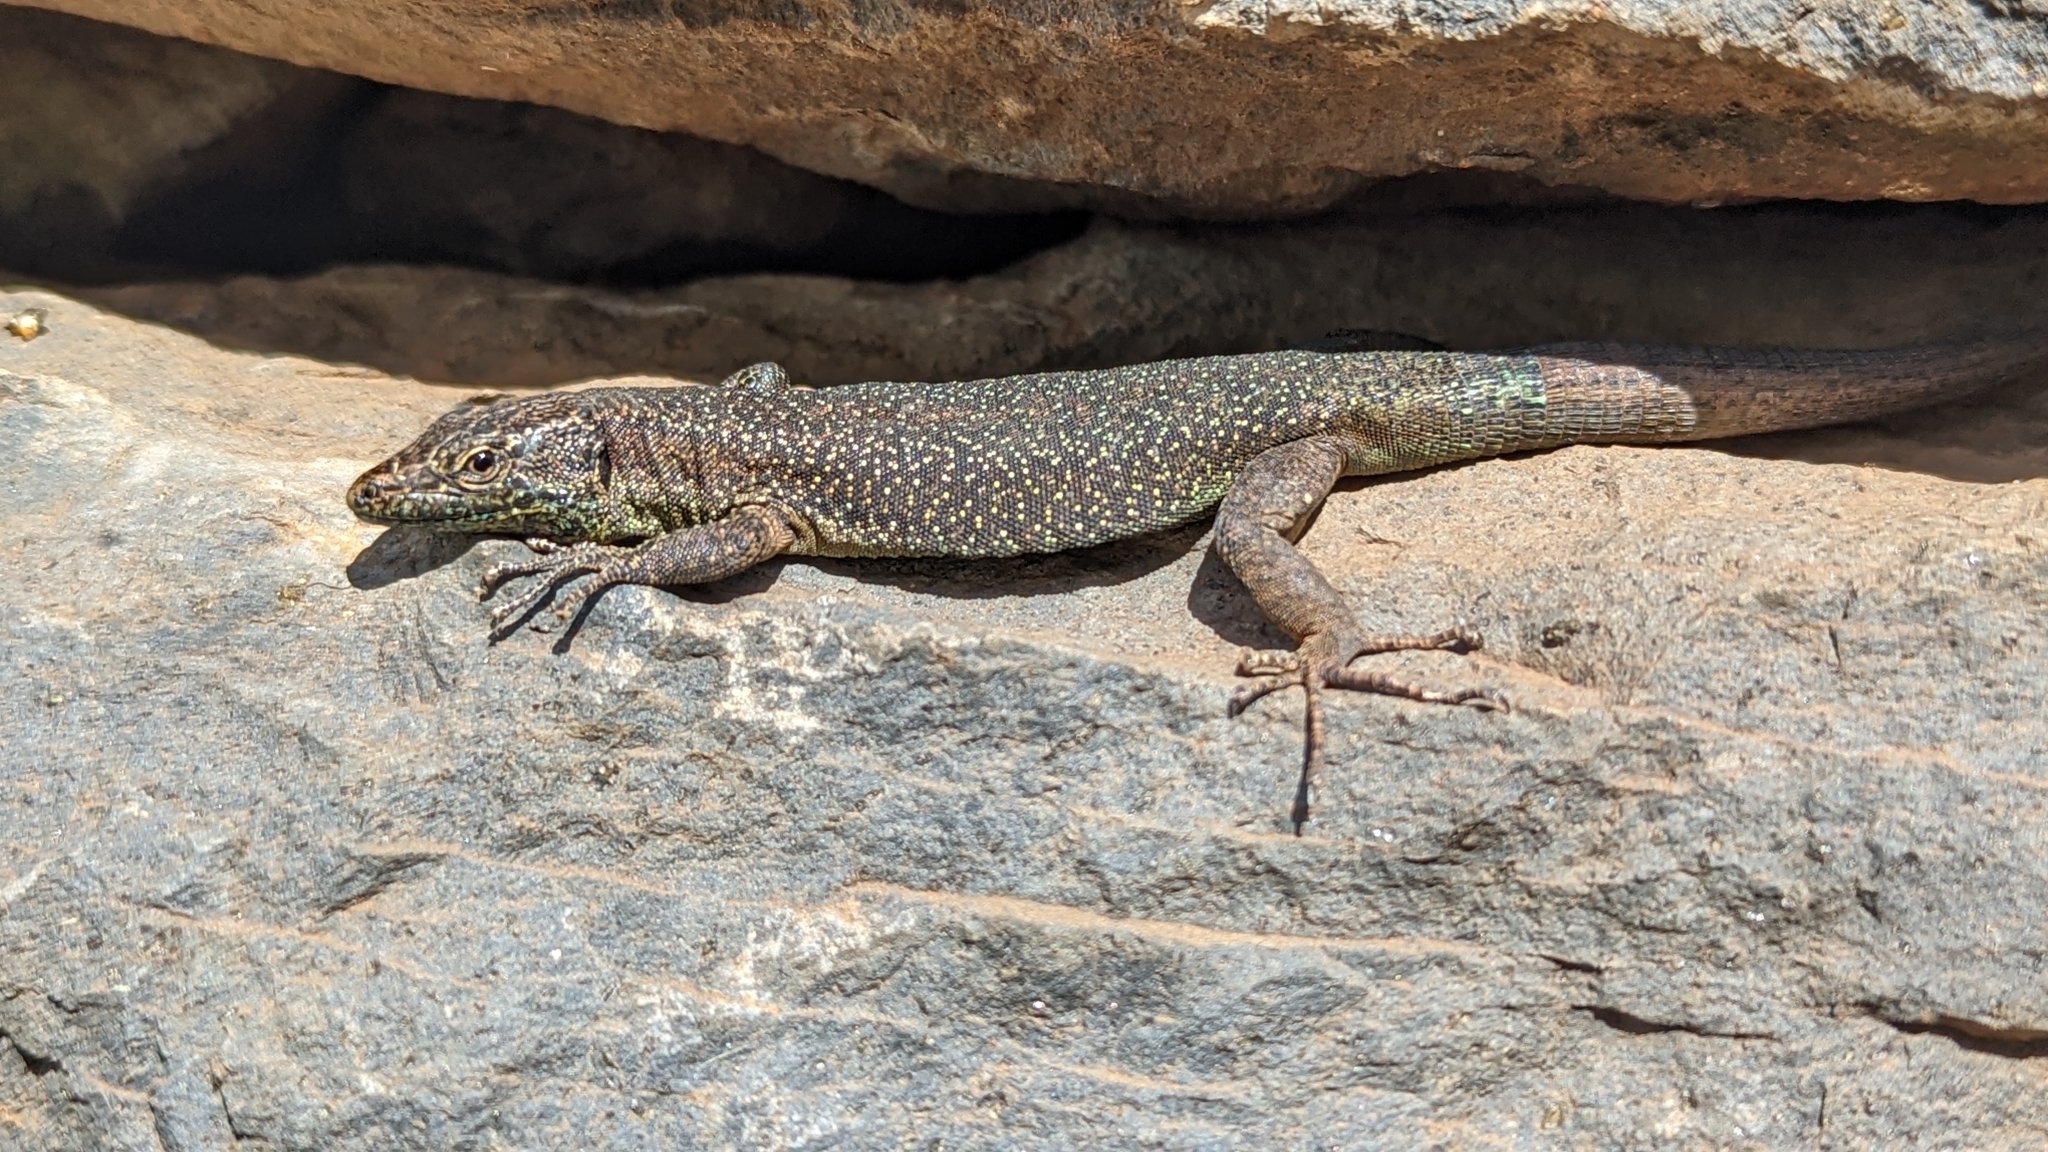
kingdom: Animalia
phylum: Chordata
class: Squamata
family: Lacertidae
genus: Teira
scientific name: Teira dugesii
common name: Madeira lizard
